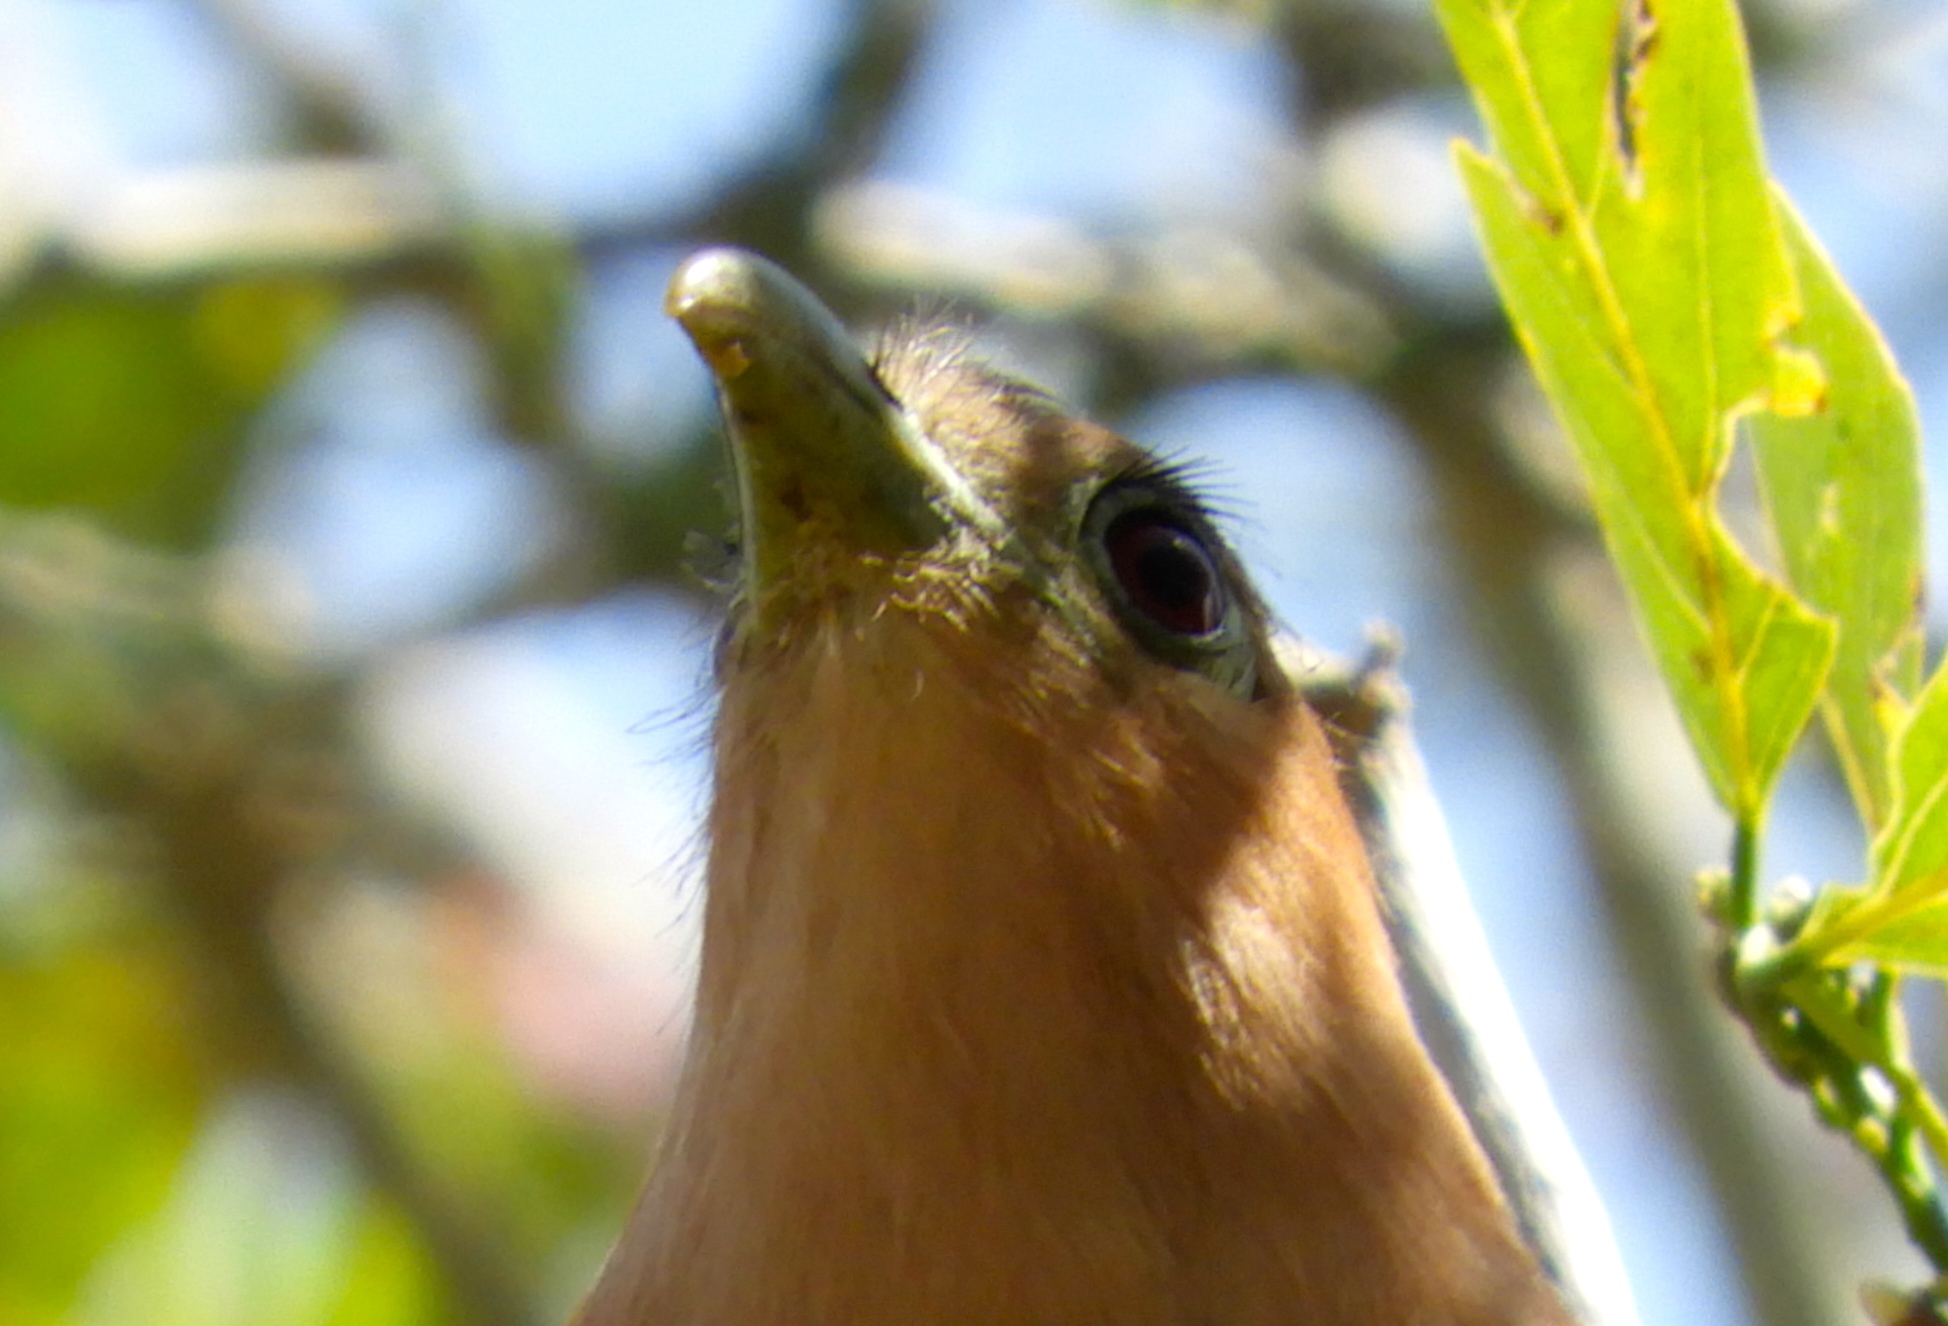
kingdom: Animalia
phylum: Chordata
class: Aves
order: Cuculiformes
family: Cuculidae
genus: Piaya
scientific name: Piaya cayana
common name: Squirrel cuckoo
